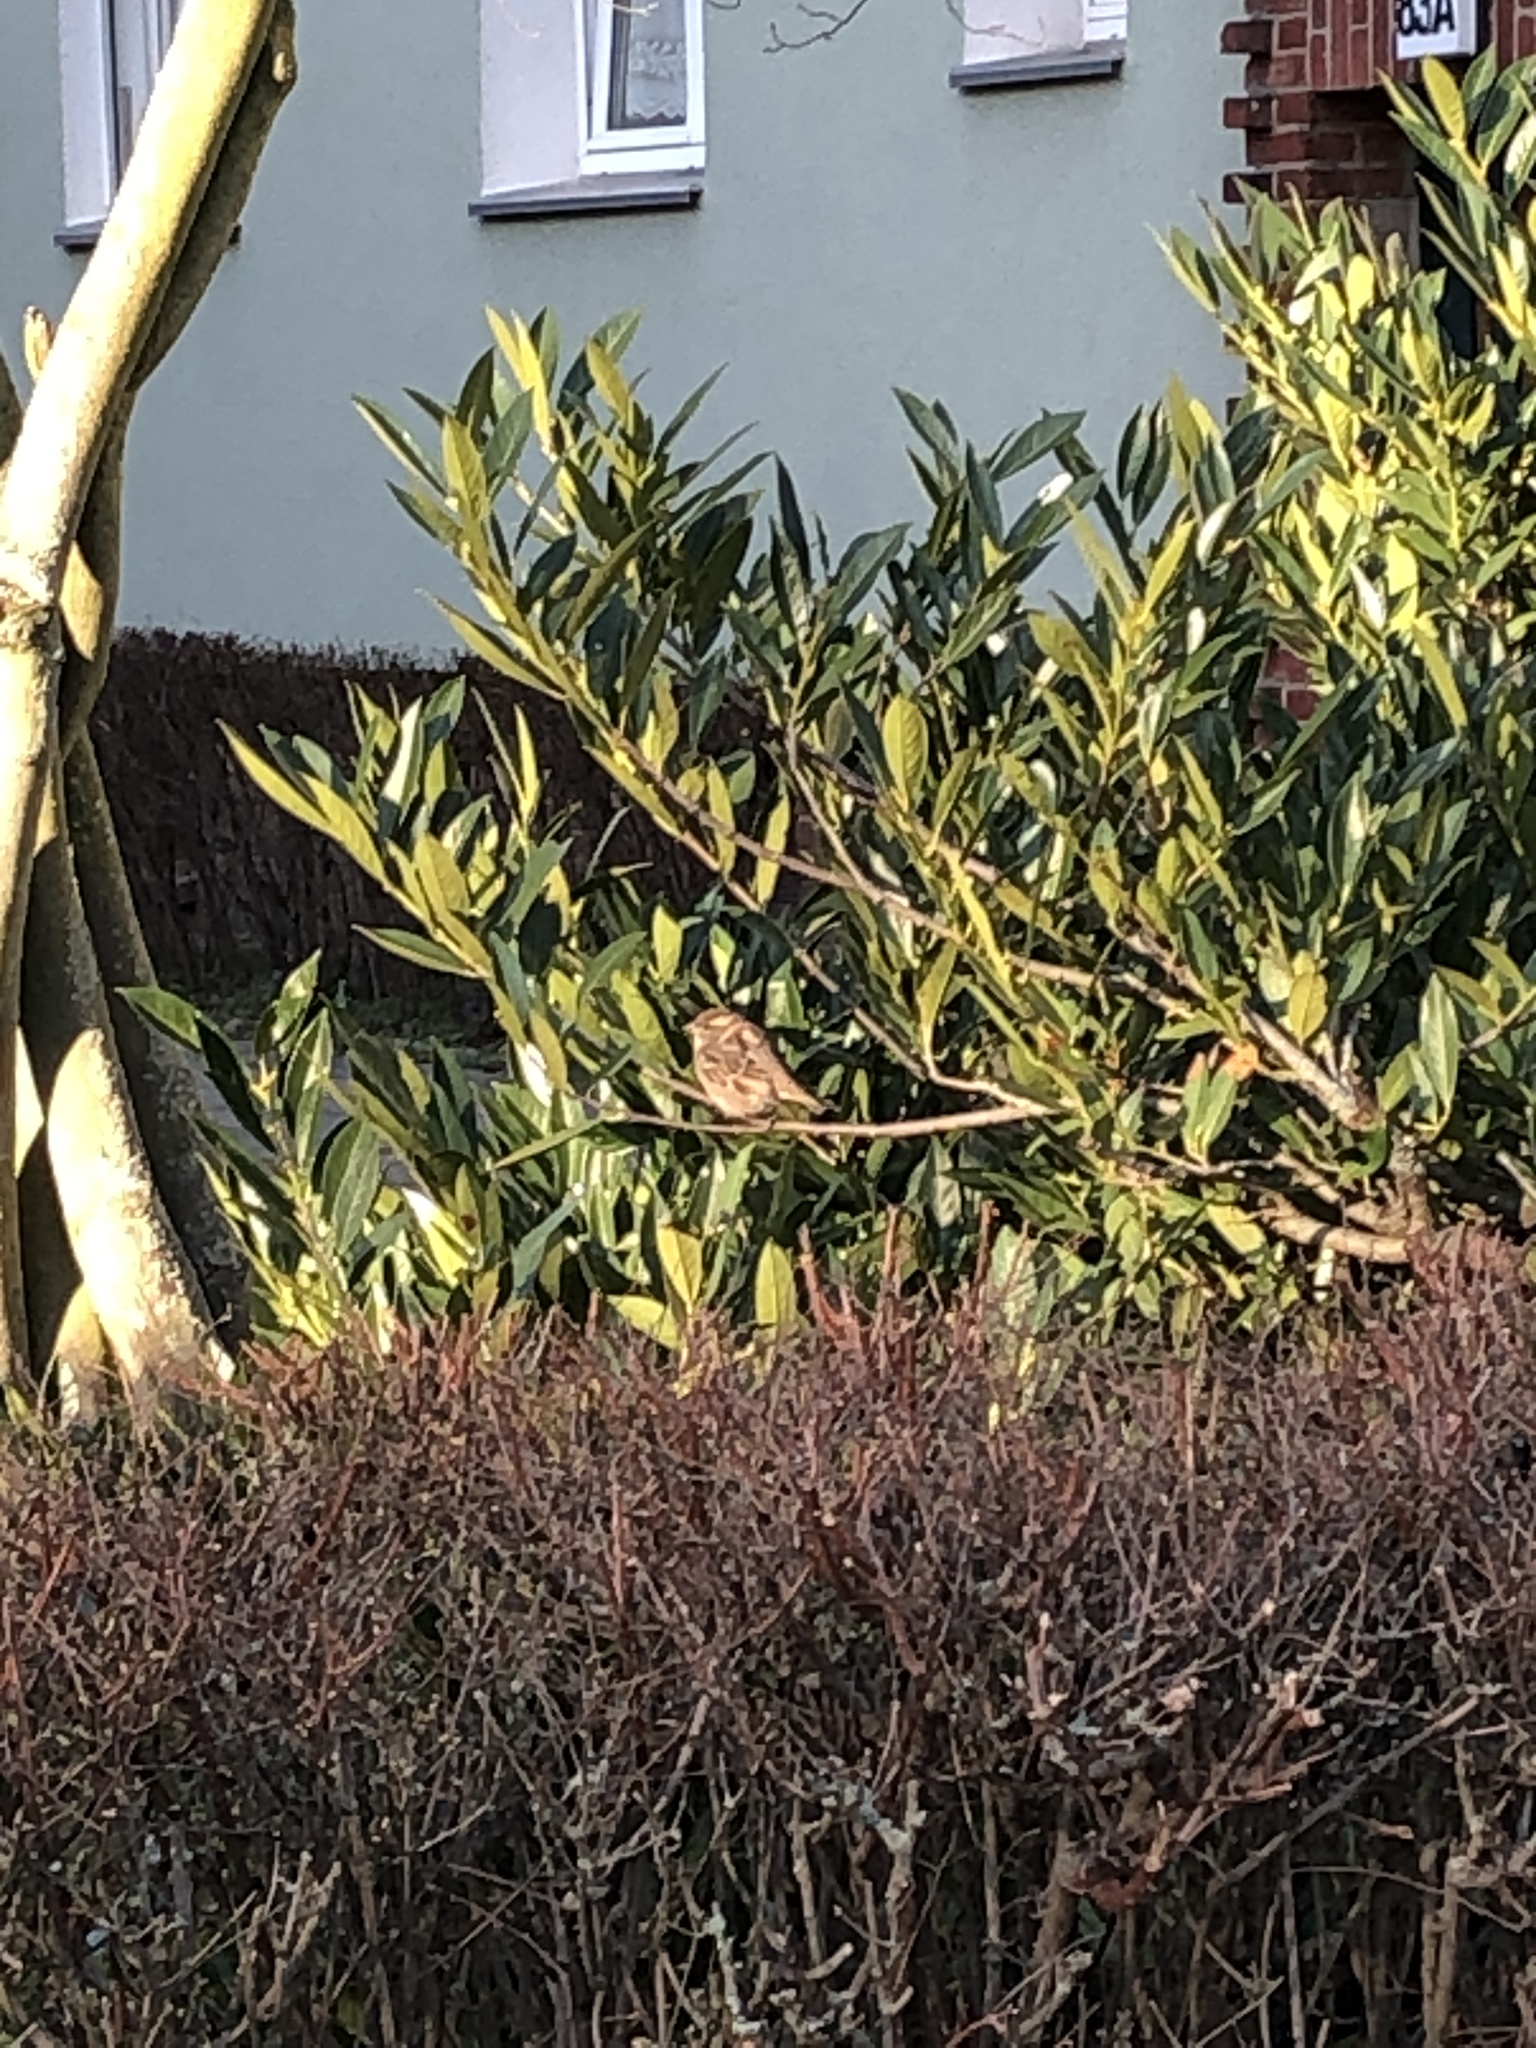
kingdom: Animalia
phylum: Chordata
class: Aves
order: Passeriformes
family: Passeridae
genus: Passer
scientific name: Passer domesticus
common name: House sparrow
